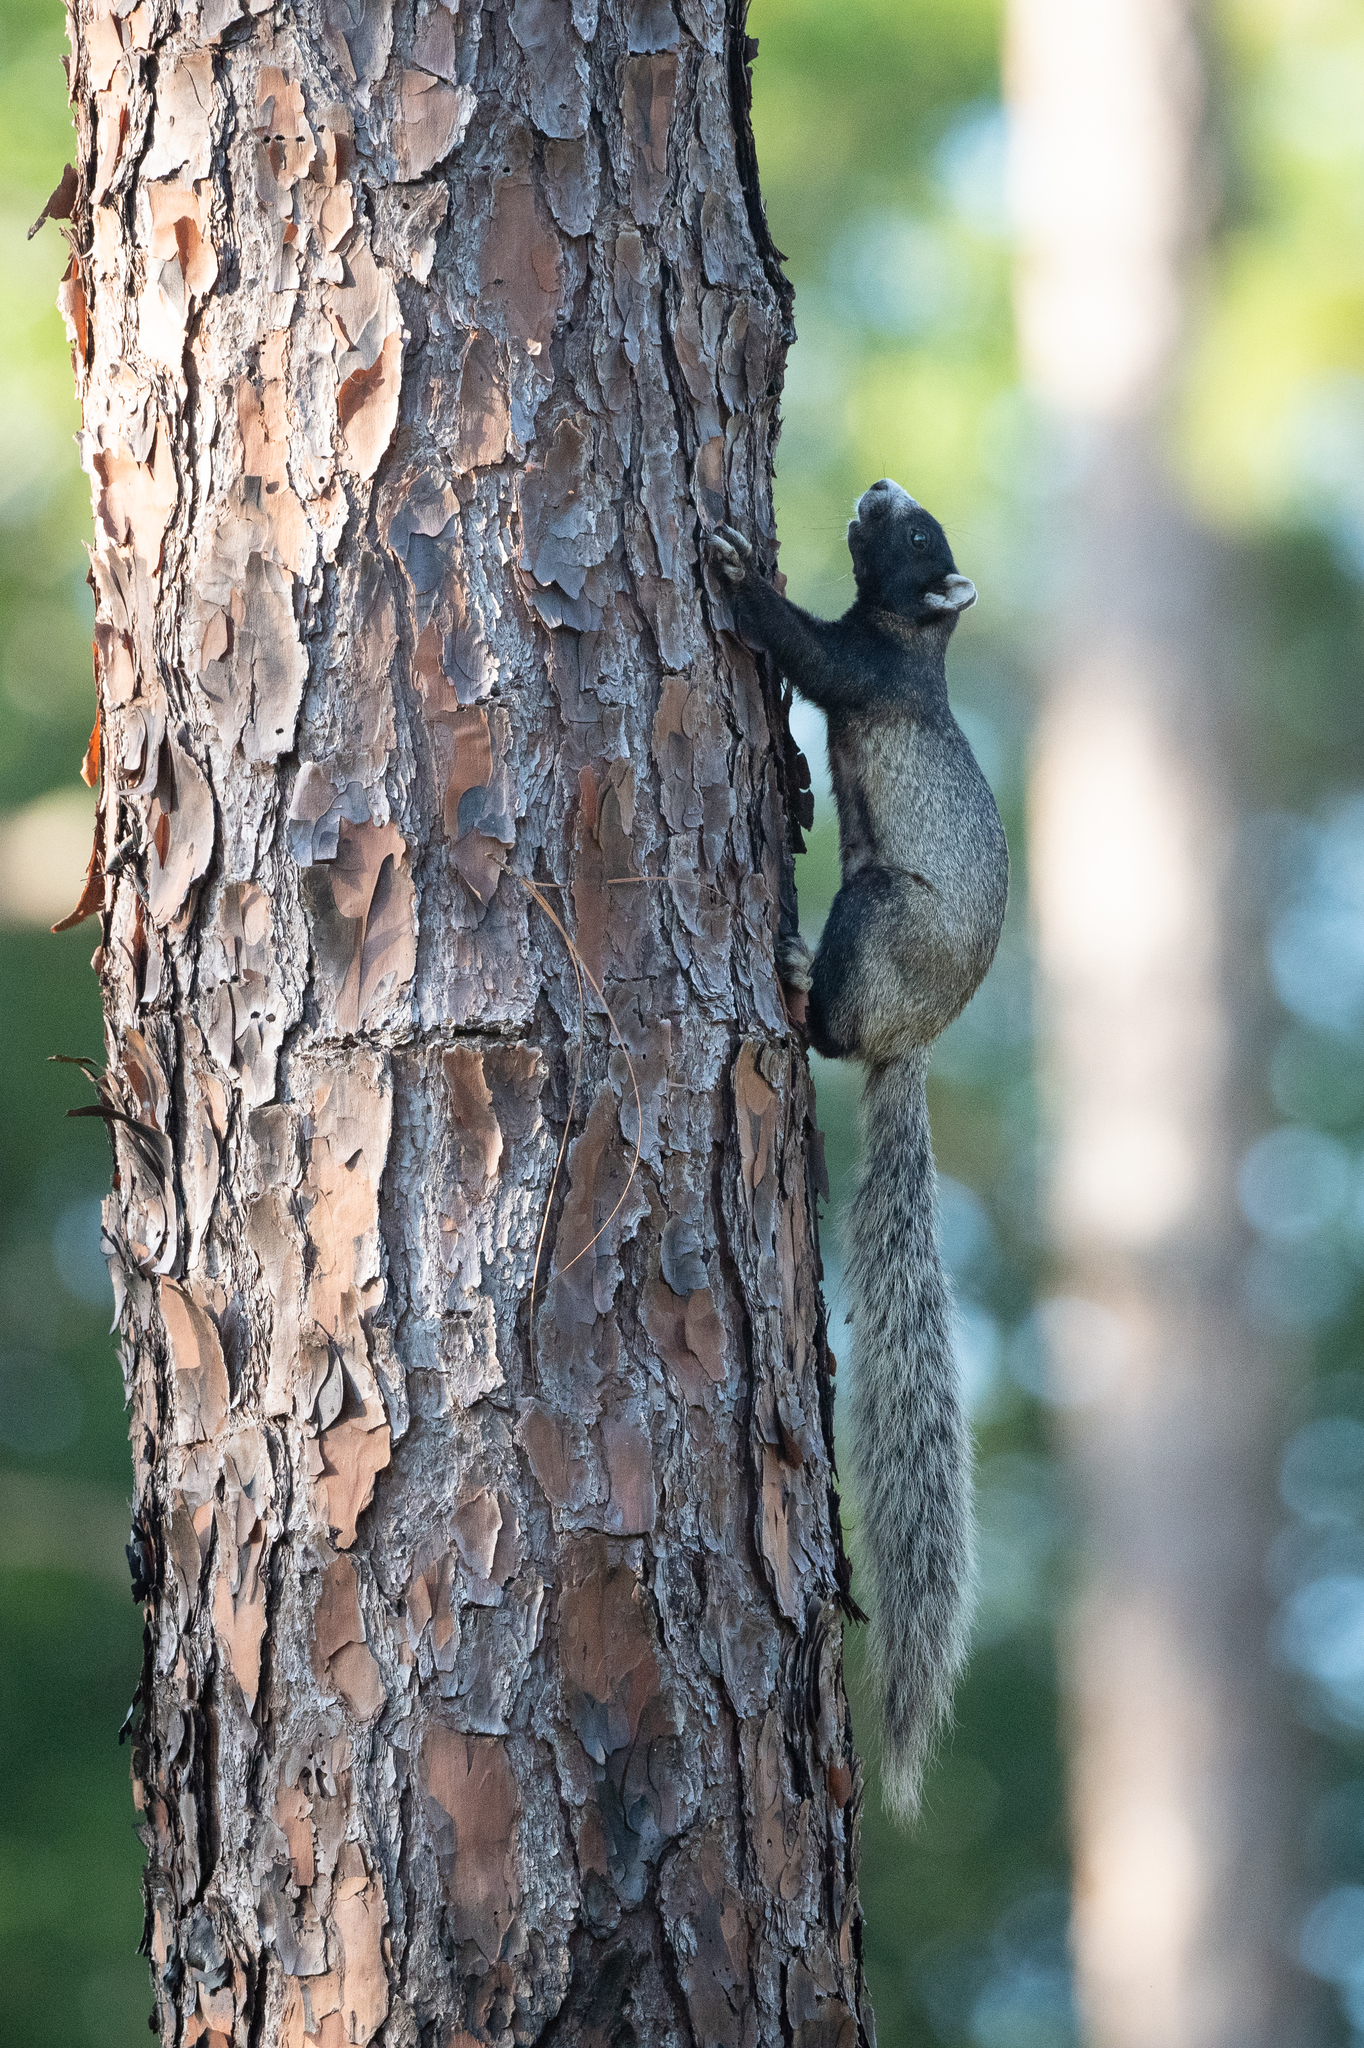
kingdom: Animalia
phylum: Chordata
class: Mammalia
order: Rodentia
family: Sciuridae
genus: Sciurus
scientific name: Sciurus niger
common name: Fox squirrel
